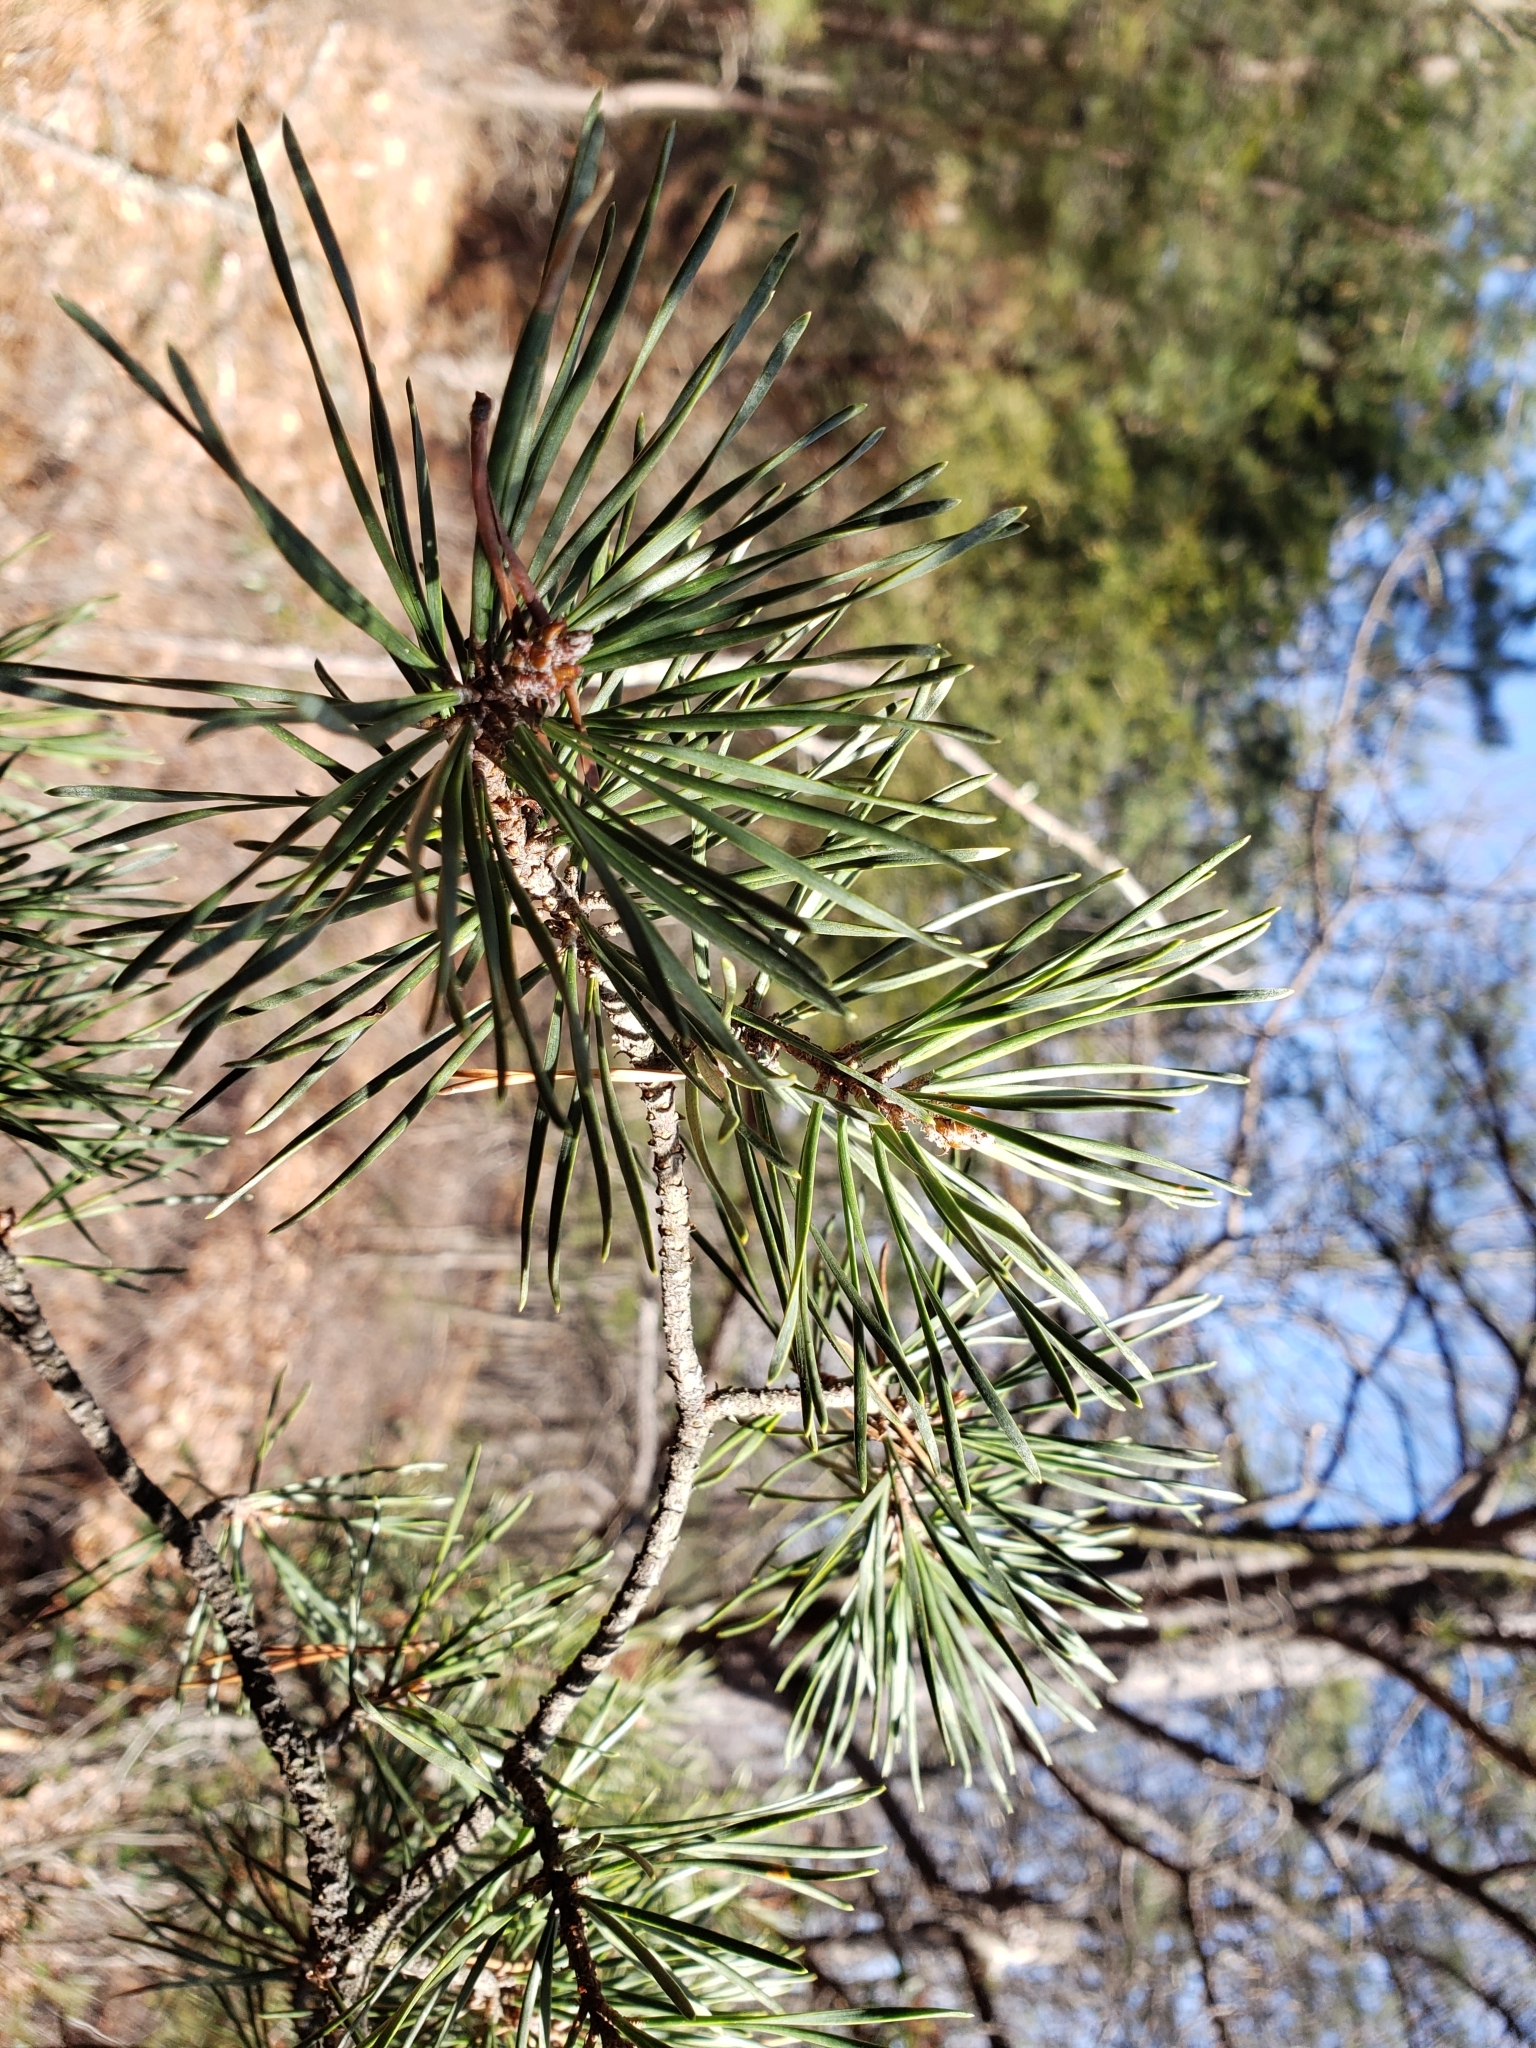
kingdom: Plantae
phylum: Tracheophyta
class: Pinopsida
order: Pinales
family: Pinaceae
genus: Pinus
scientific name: Pinus virginiana
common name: Scrub pine
